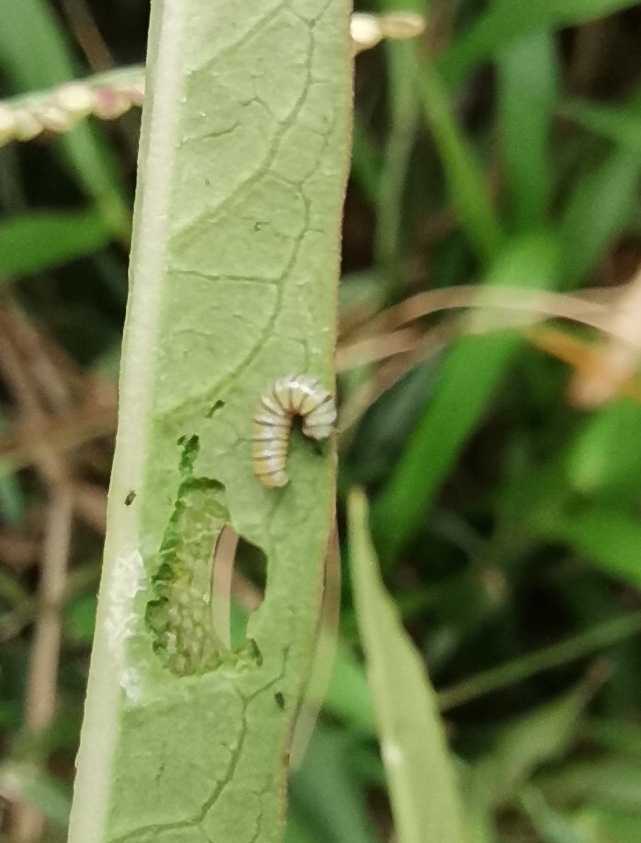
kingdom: Animalia
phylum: Arthropoda
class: Insecta
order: Lepidoptera
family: Nymphalidae
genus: Danaus
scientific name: Danaus plexippus
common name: Monarch
